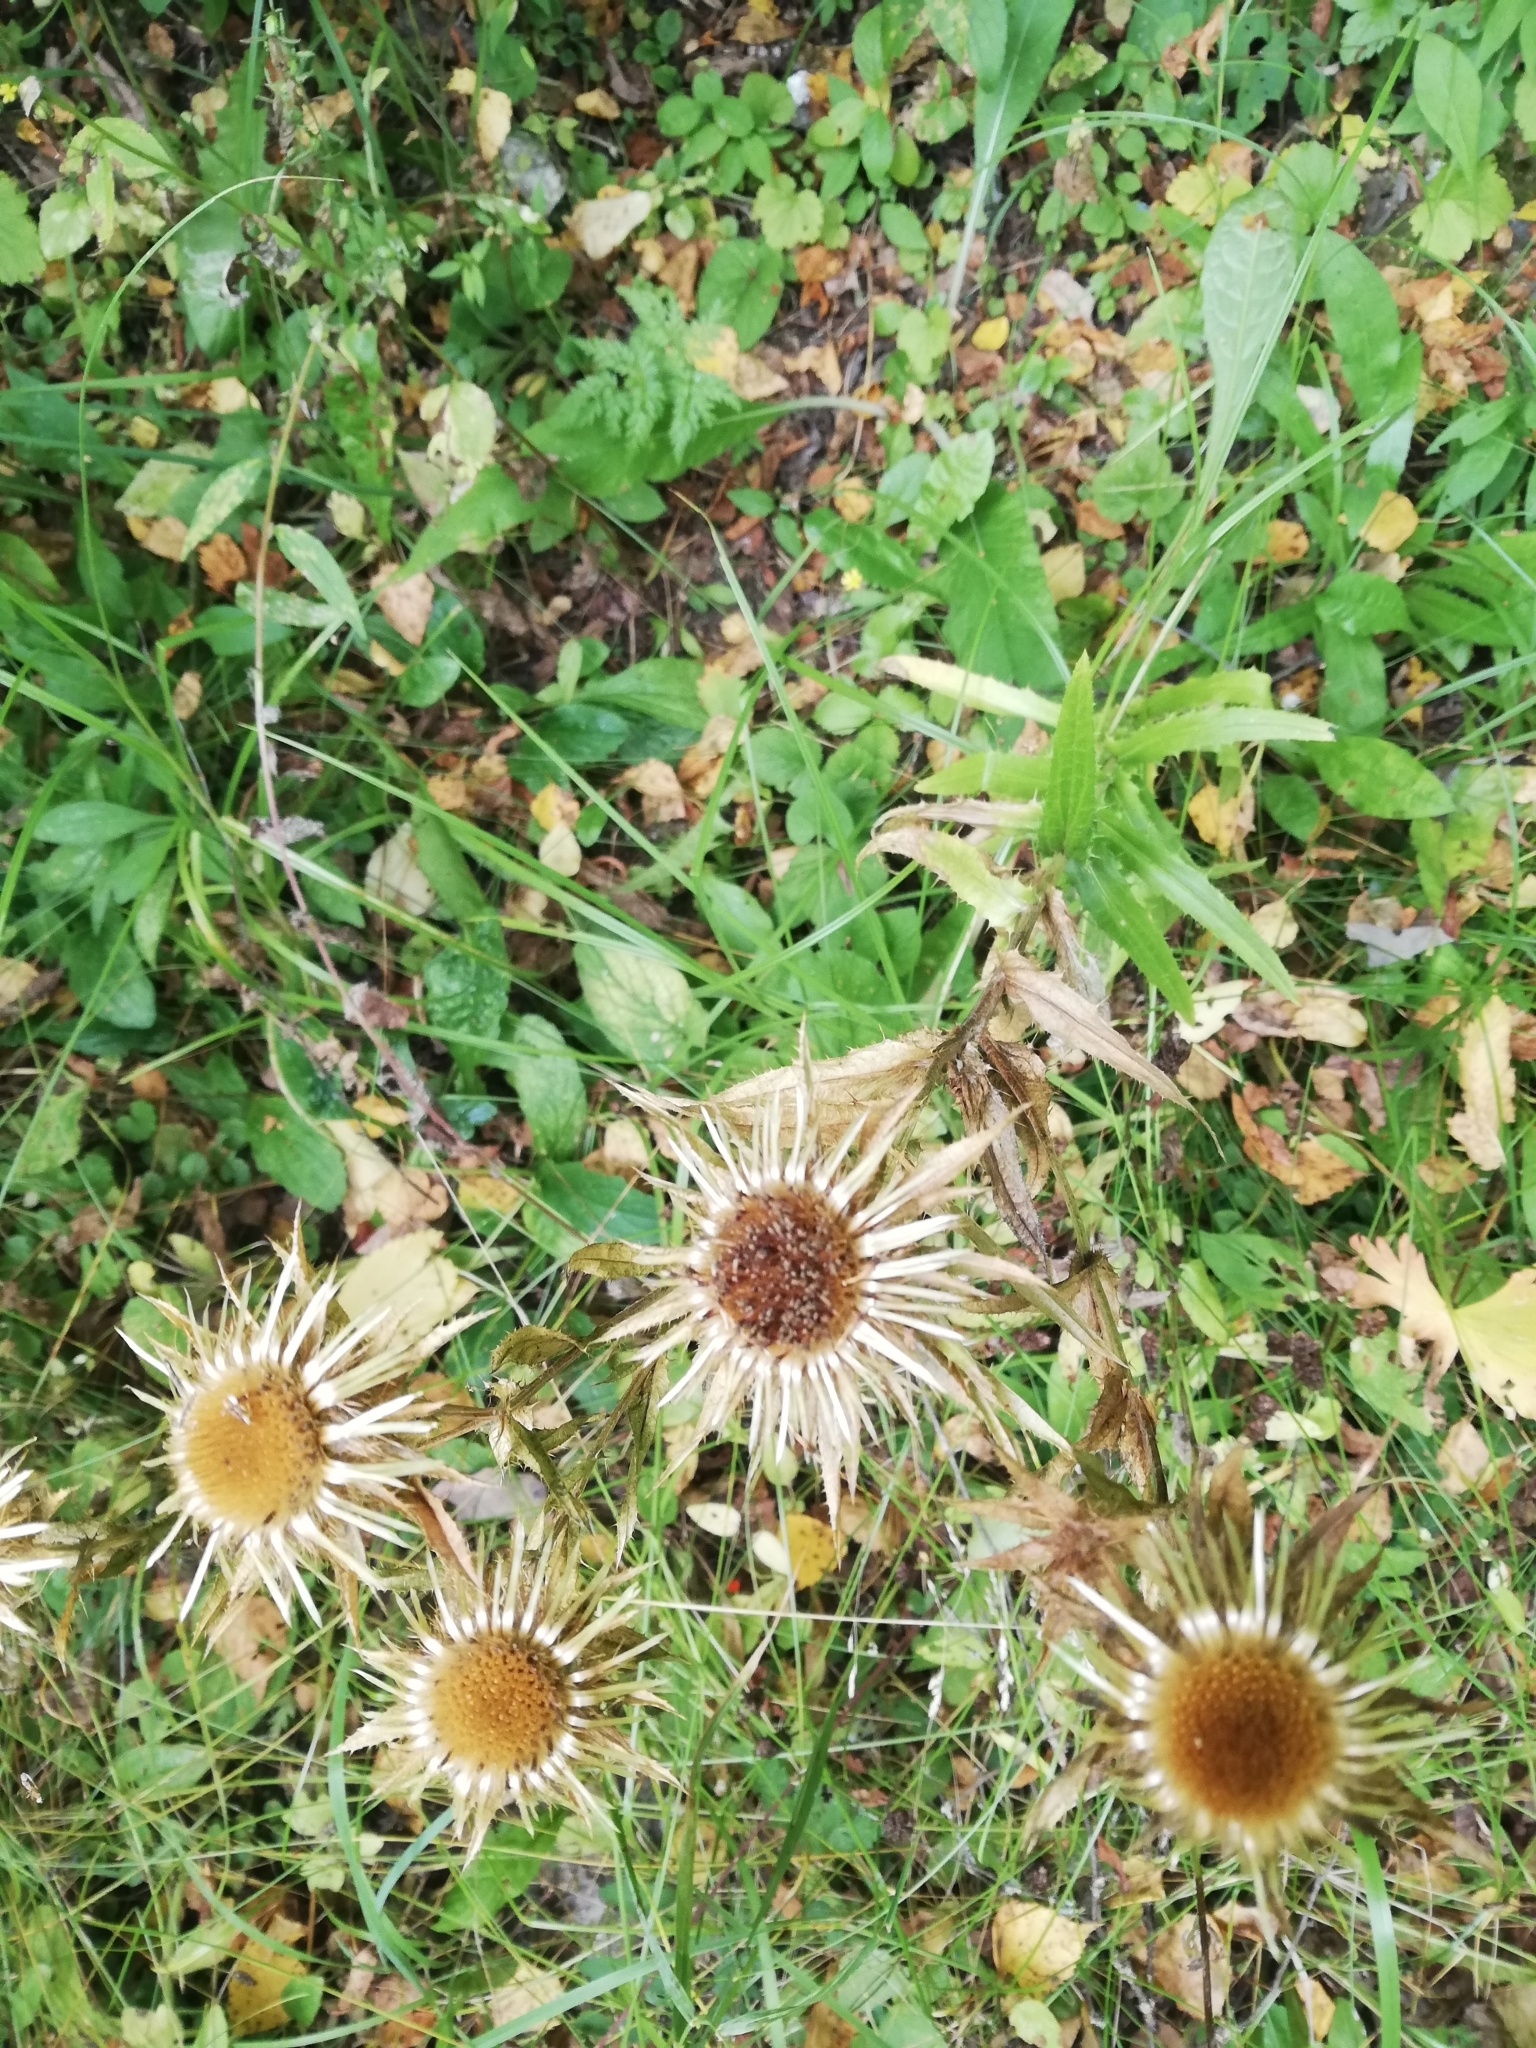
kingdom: Plantae
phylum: Tracheophyta
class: Magnoliopsida
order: Asterales
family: Asteraceae
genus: Carlina
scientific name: Carlina biebersteinii
